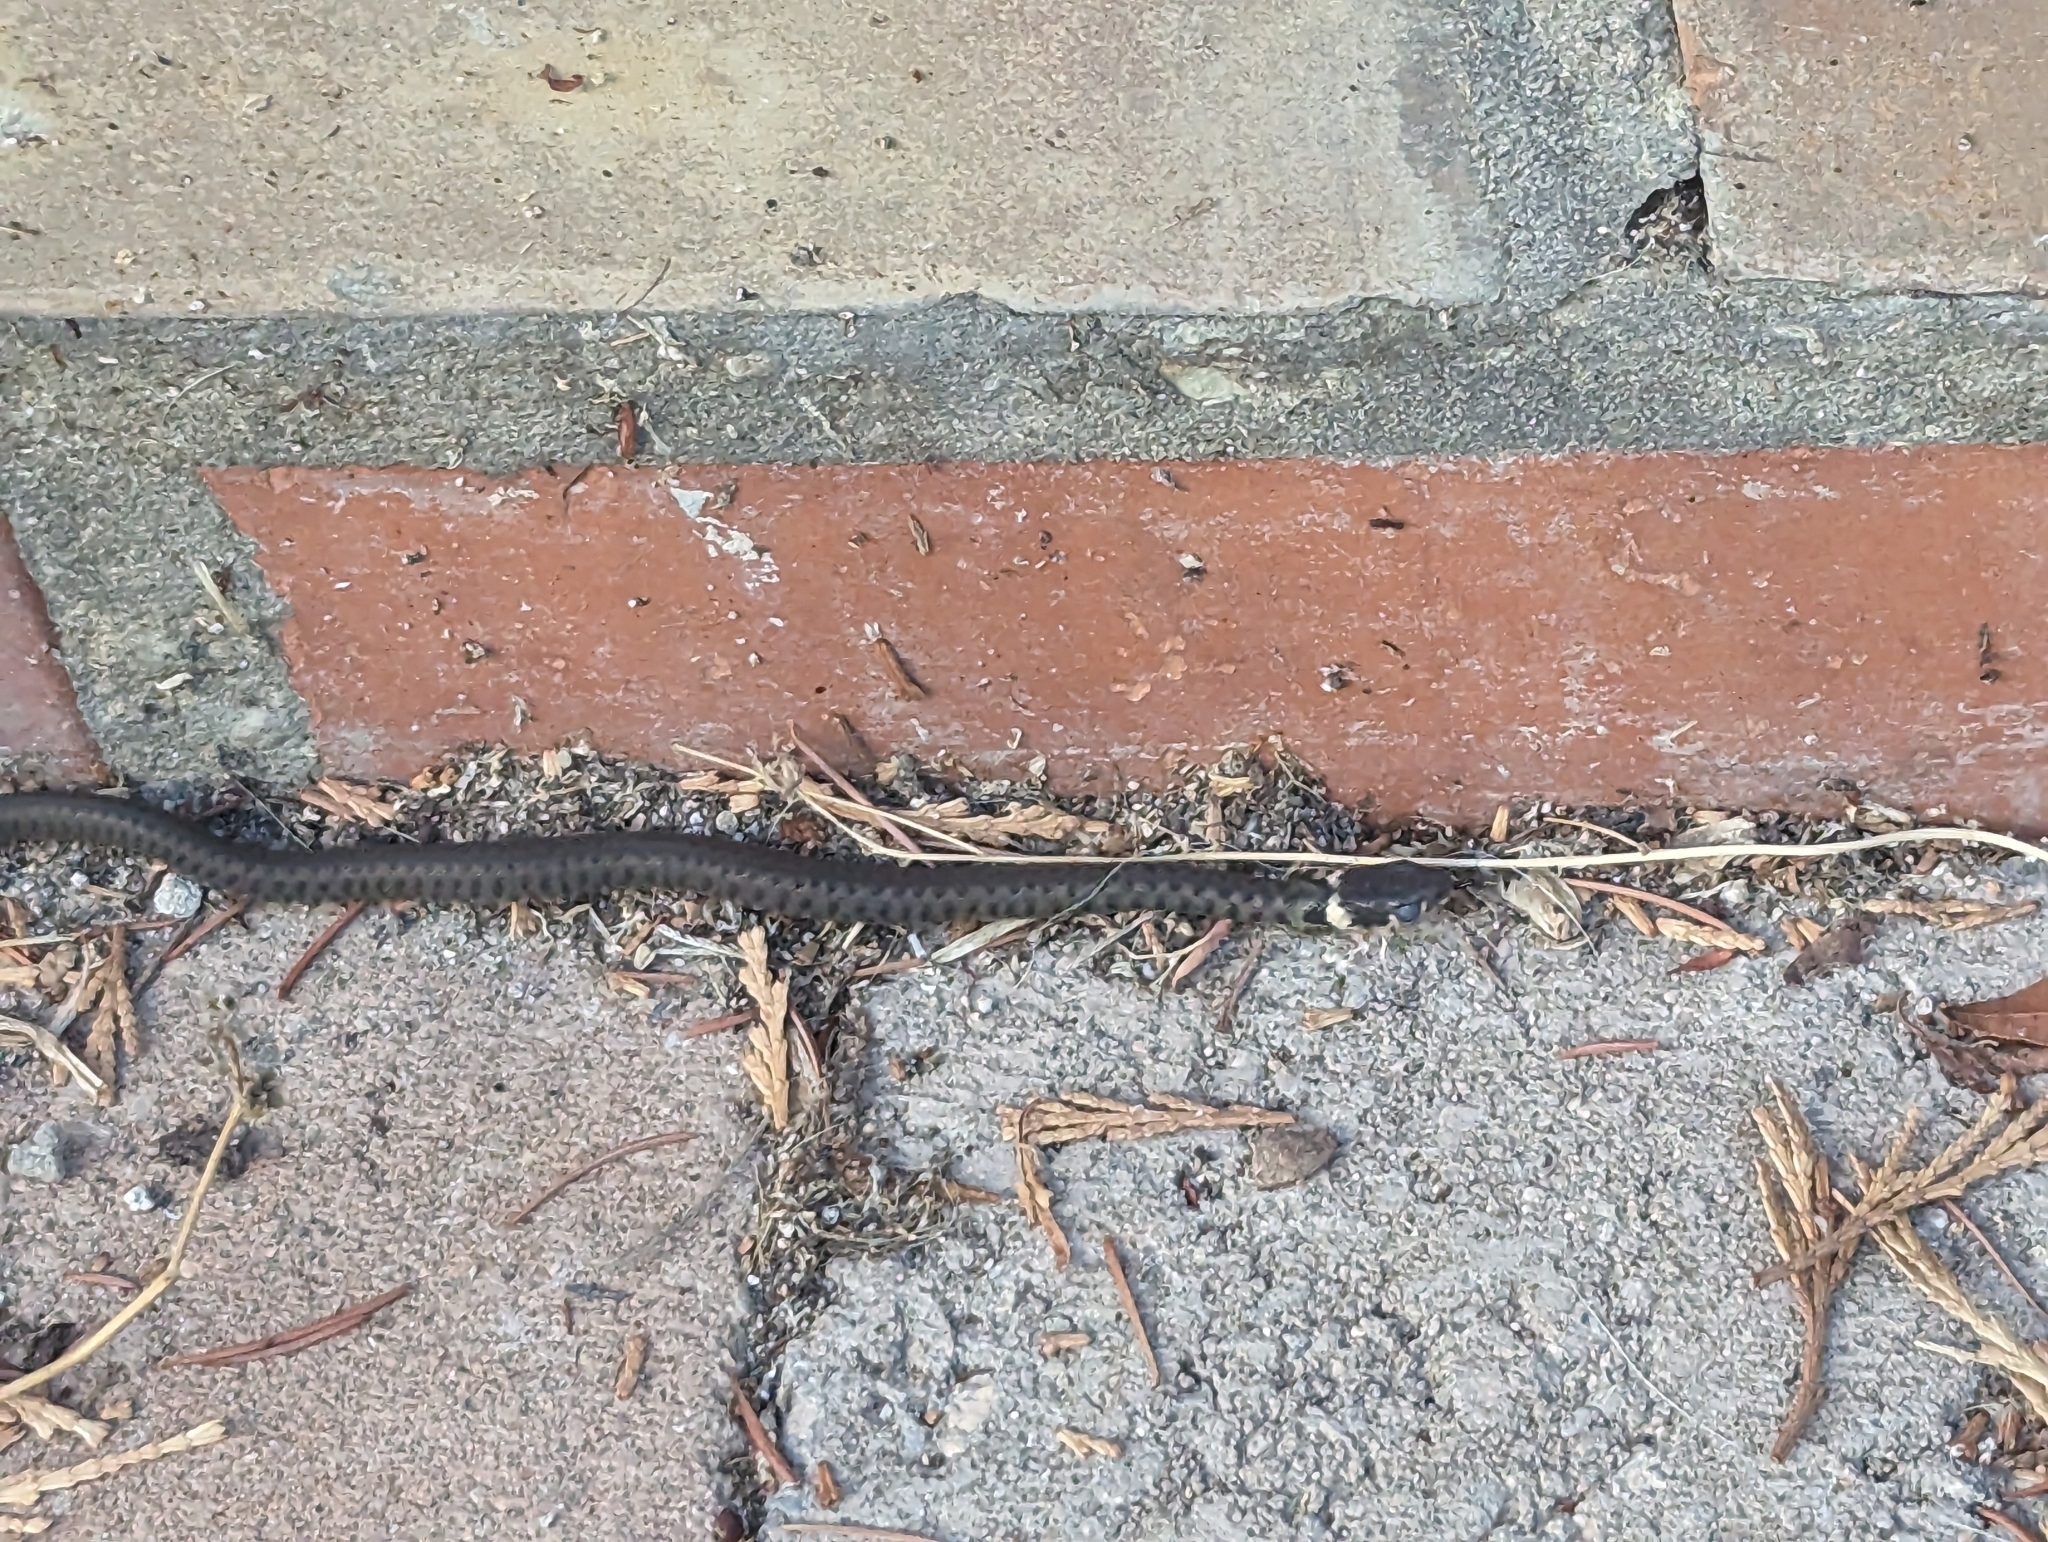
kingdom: Animalia
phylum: Chordata
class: Squamata
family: Colubridae
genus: Natrix
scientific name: Natrix helvetica
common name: Banded grass snake
